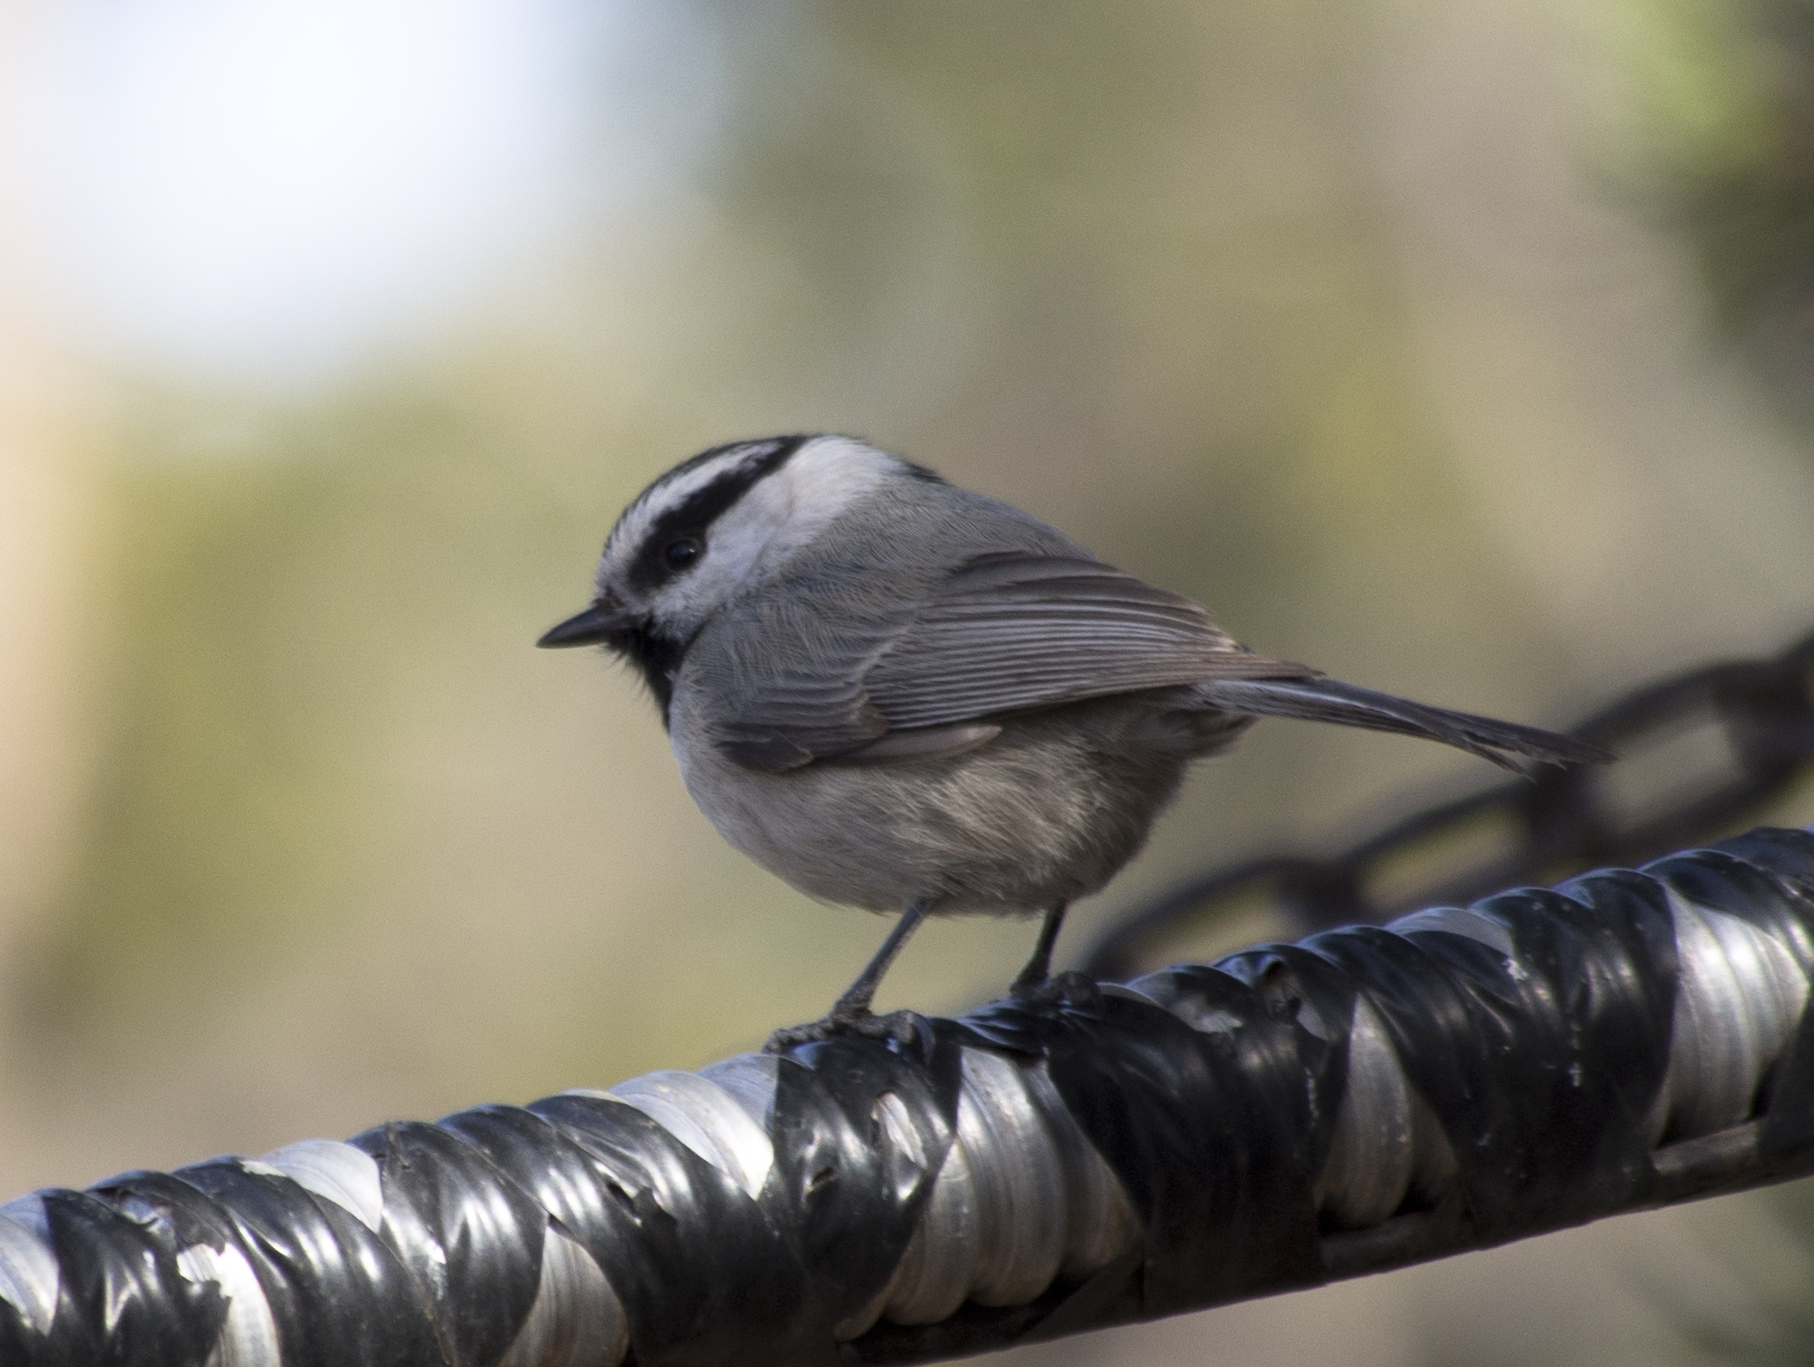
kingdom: Animalia
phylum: Chordata
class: Aves
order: Passeriformes
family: Paridae
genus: Poecile
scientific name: Poecile gambeli
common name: Mountain chickadee
